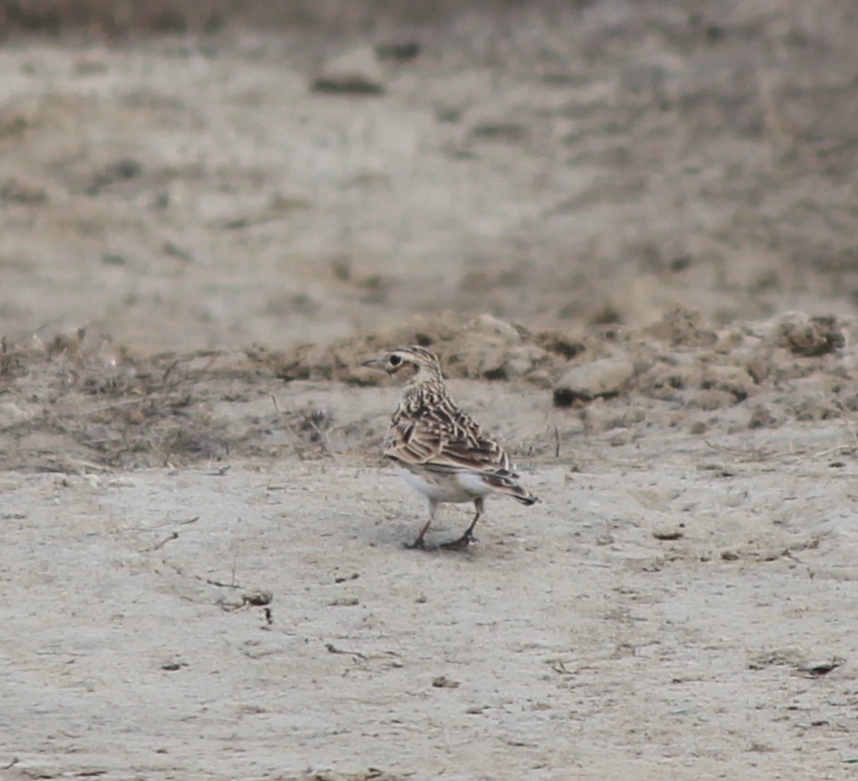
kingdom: Animalia
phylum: Chordata
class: Aves
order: Passeriformes
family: Alaudidae
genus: Alauda
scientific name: Alauda arvensis
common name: Eurasian skylark
